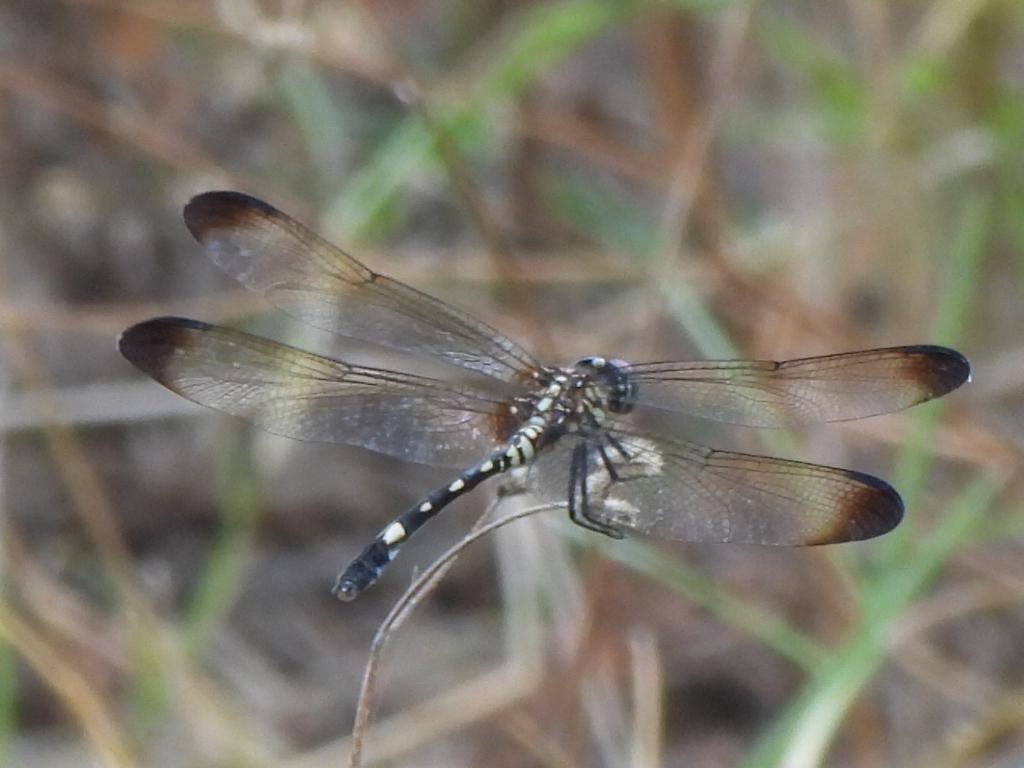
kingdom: Animalia
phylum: Arthropoda
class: Insecta
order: Odonata
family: Libellulidae
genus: Dythemis
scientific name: Dythemis velox
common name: Swift setwing
